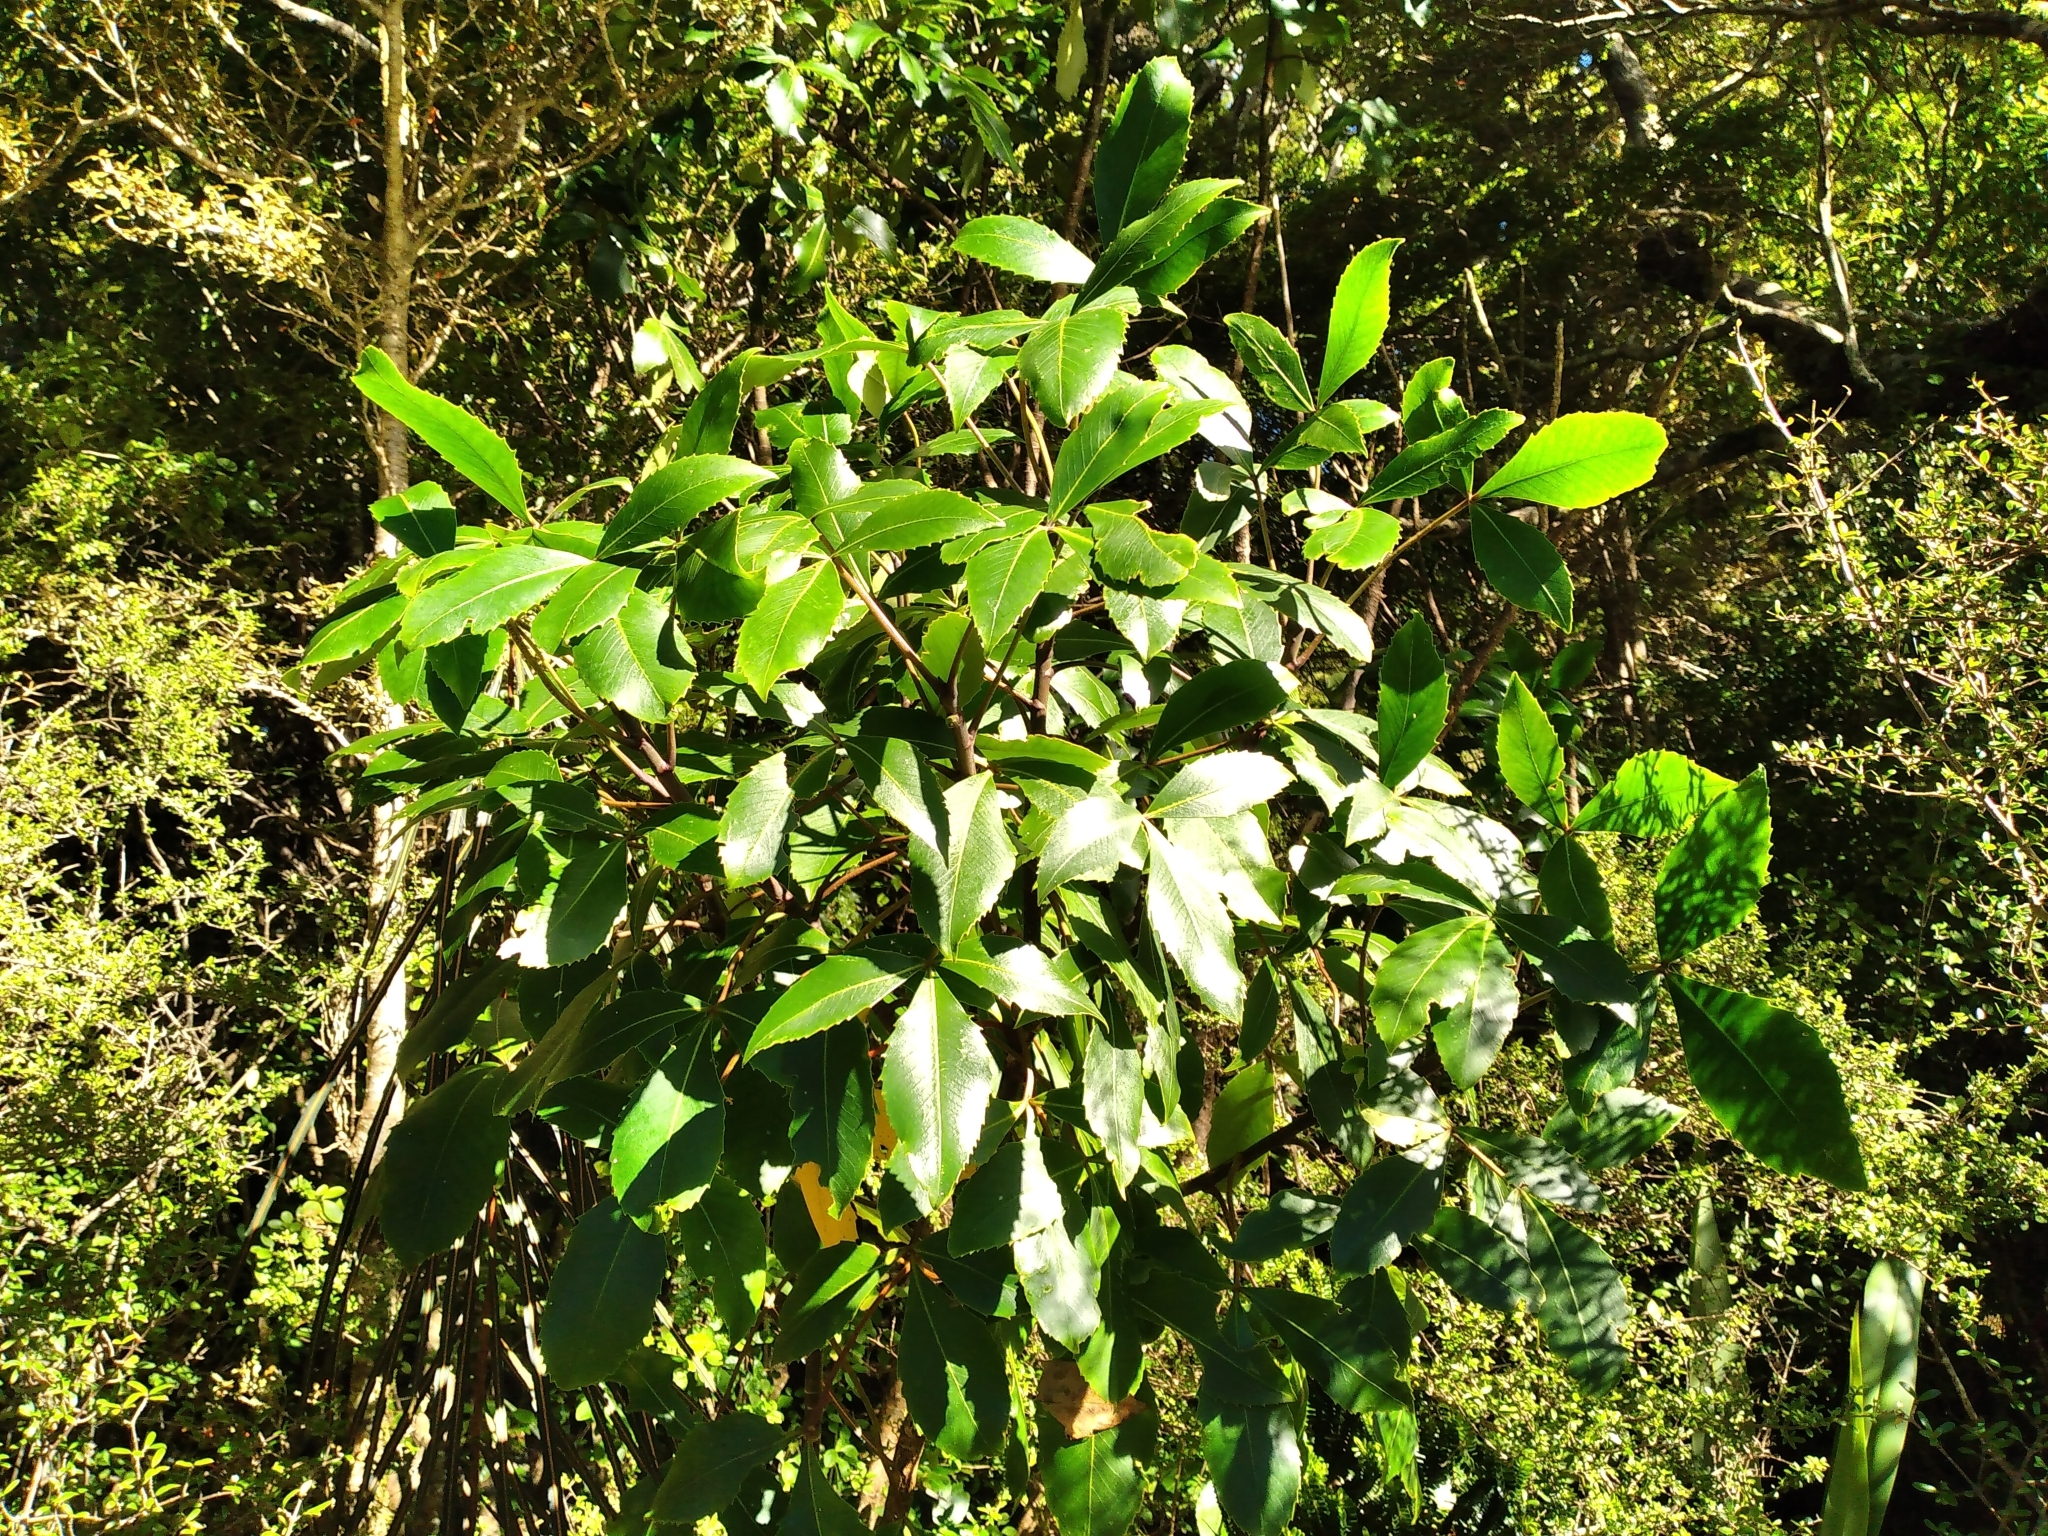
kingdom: Plantae
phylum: Tracheophyta
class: Magnoliopsida
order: Apiales
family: Araliaceae
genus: Neopanax
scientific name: Neopanax colensoi
